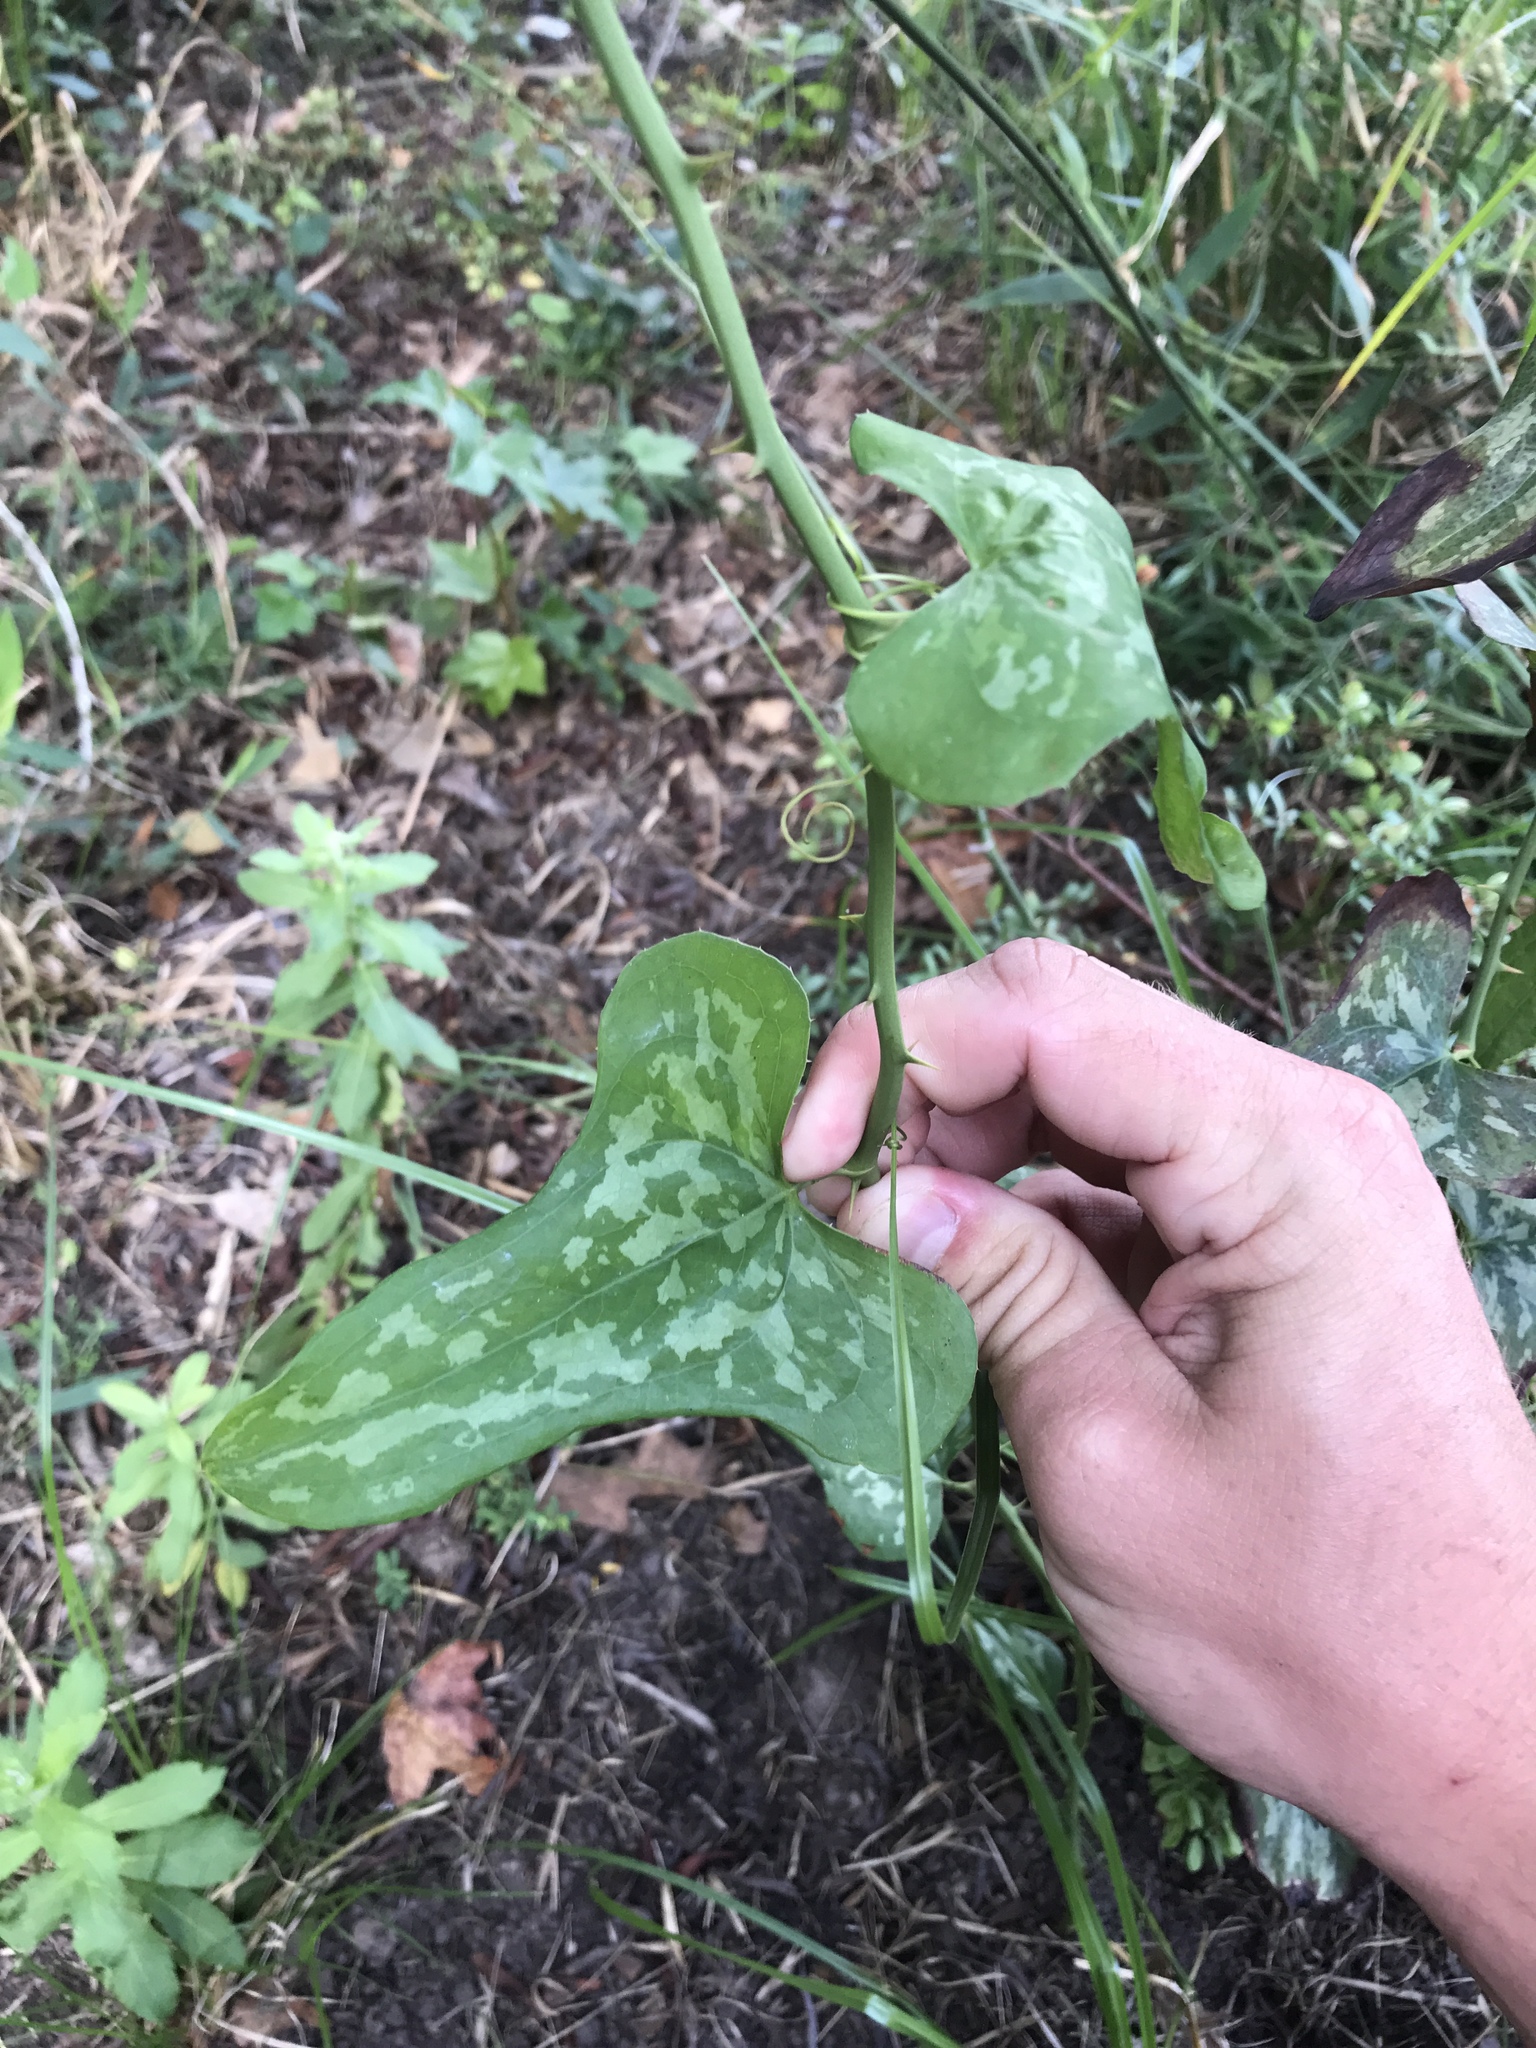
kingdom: Plantae
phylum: Tracheophyta
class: Liliopsida
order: Liliales
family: Smilacaceae
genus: Smilax
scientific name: Smilax bona-nox
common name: Catbrier
